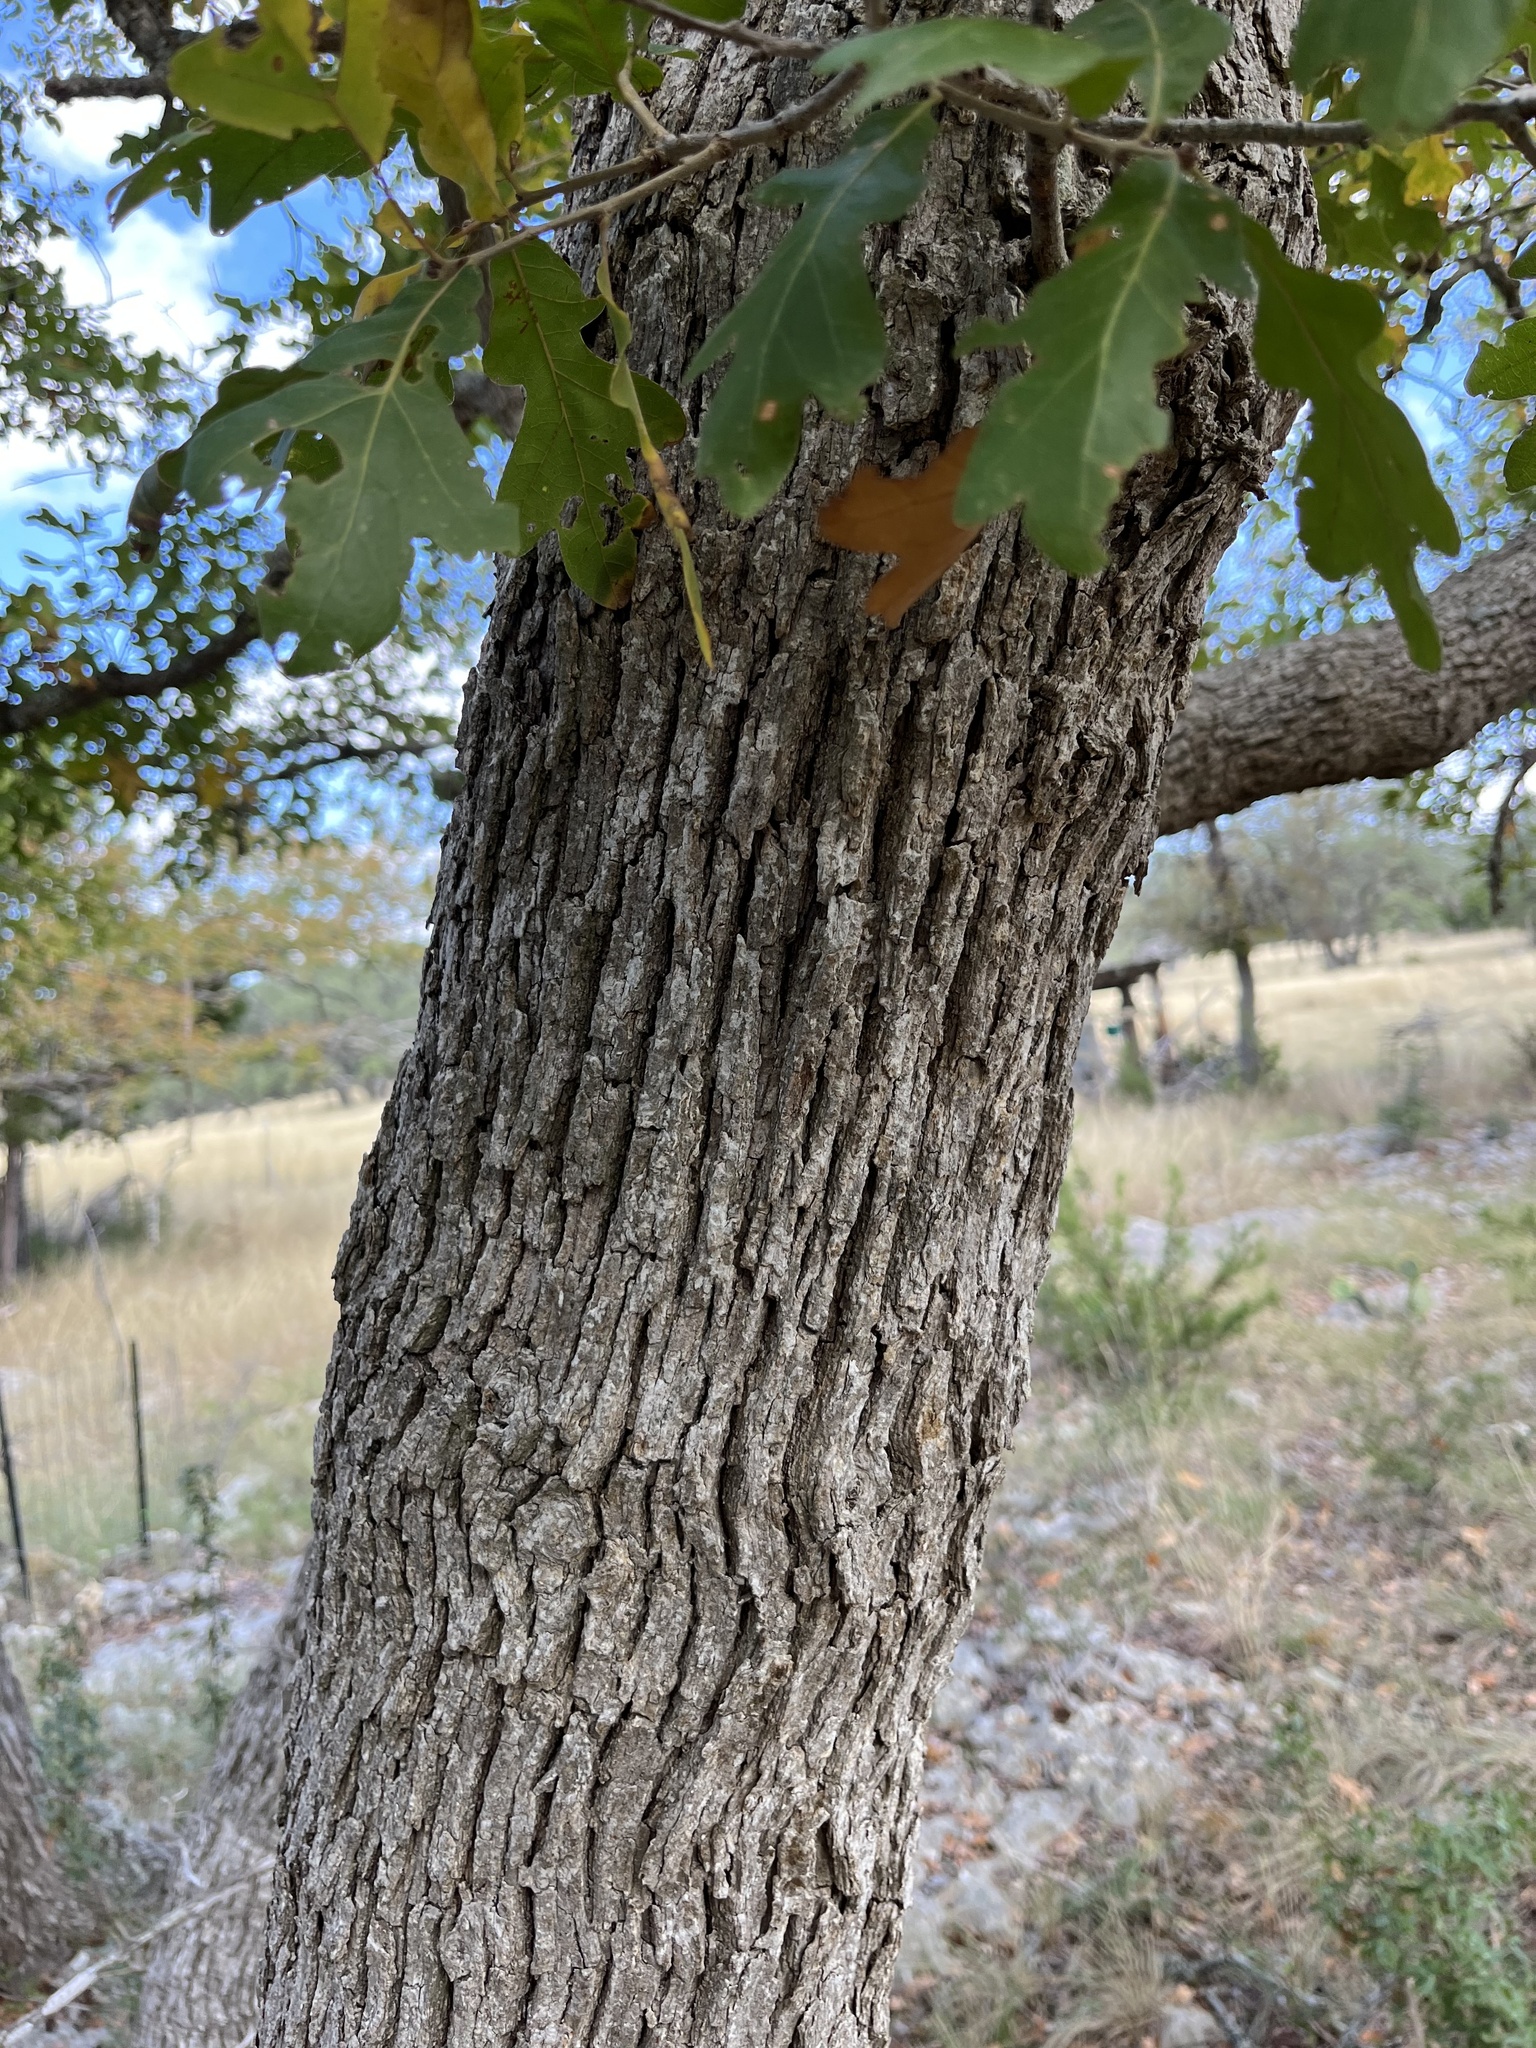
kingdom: Plantae
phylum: Tracheophyta
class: Magnoliopsida
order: Fagales
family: Fagaceae
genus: Quercus
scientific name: Quercus stellata
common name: Post oak
